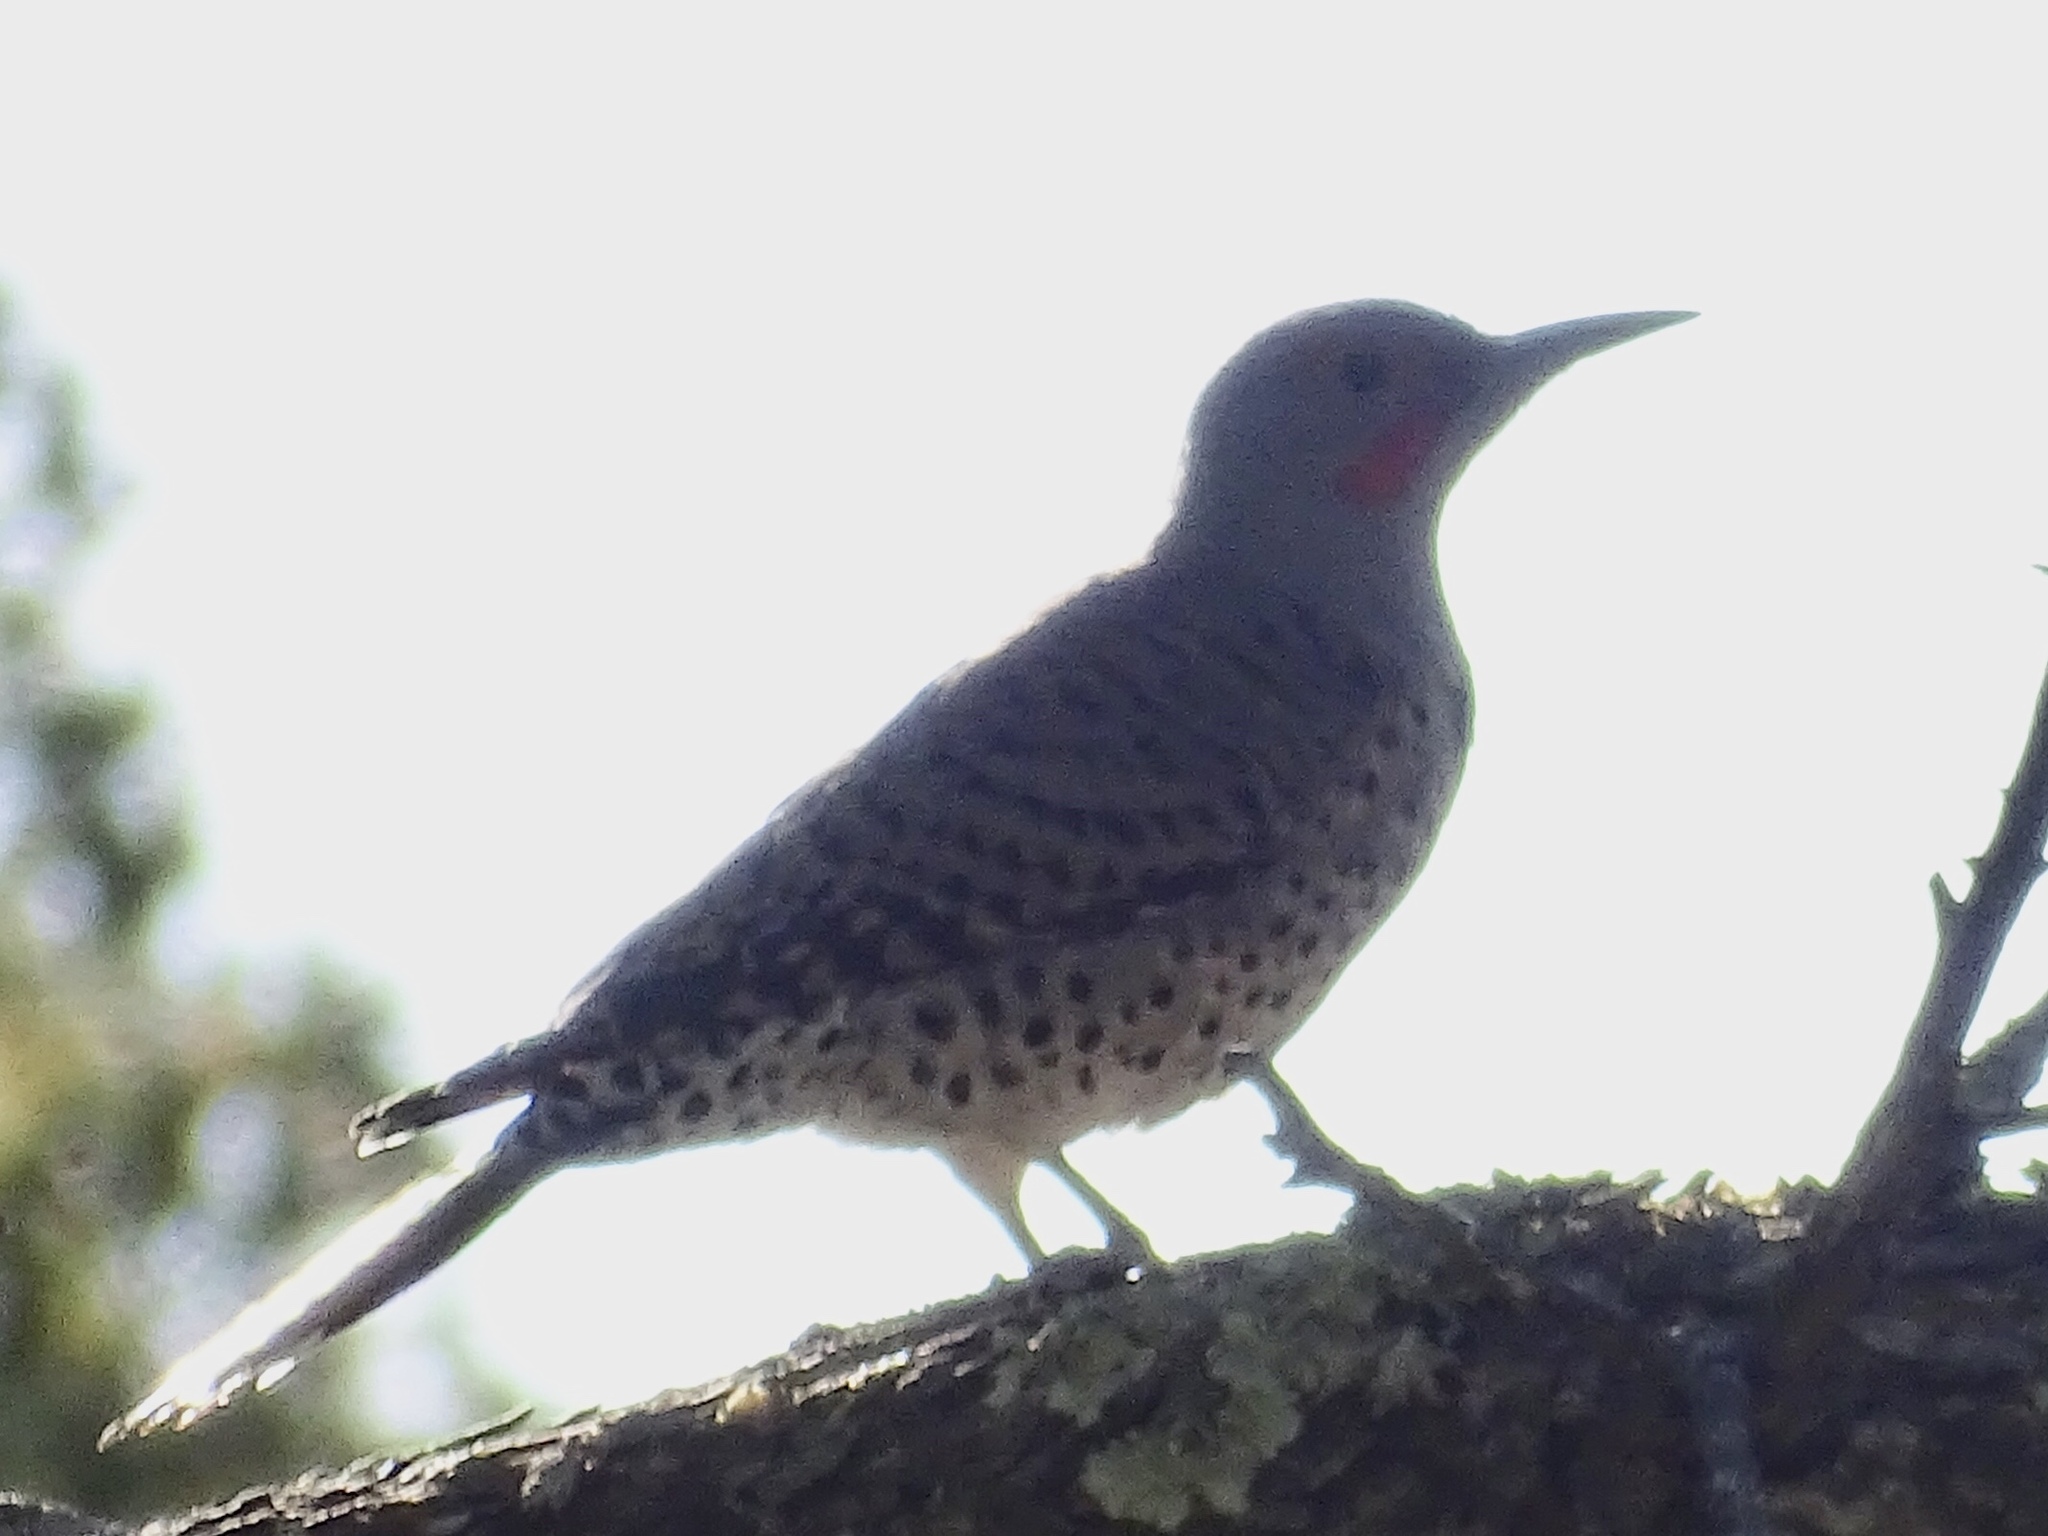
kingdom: Animalia
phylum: Chordata
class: Aves
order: Piciformes
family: Picidae
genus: Colaptes
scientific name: Colaptes auratus
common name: Northern flicker
